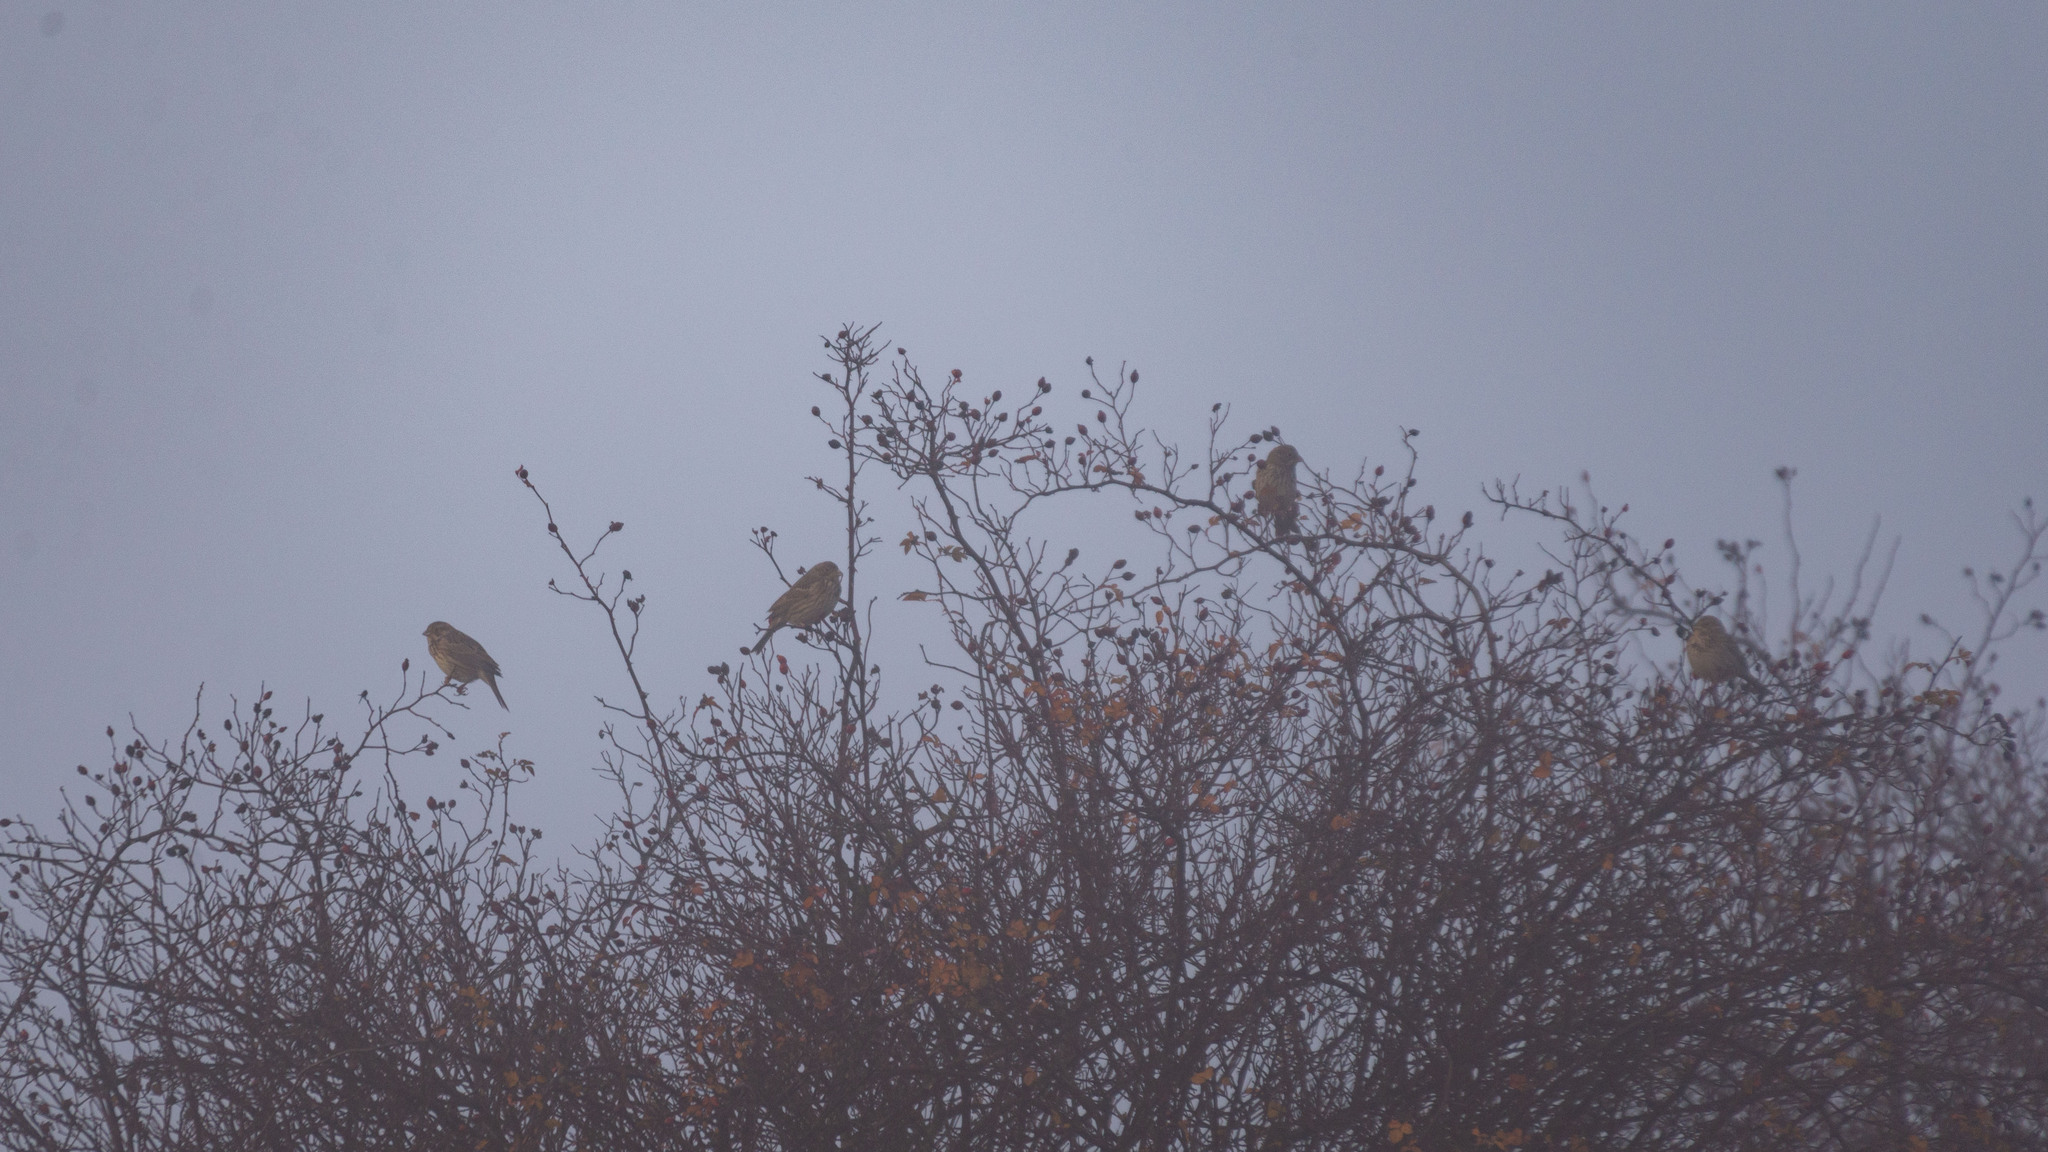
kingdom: Animalia
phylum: Chordata
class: Aves
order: Passeriformes
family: Emberizidae
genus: Emberiza
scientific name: Emberiza calandra
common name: Corn bunting
